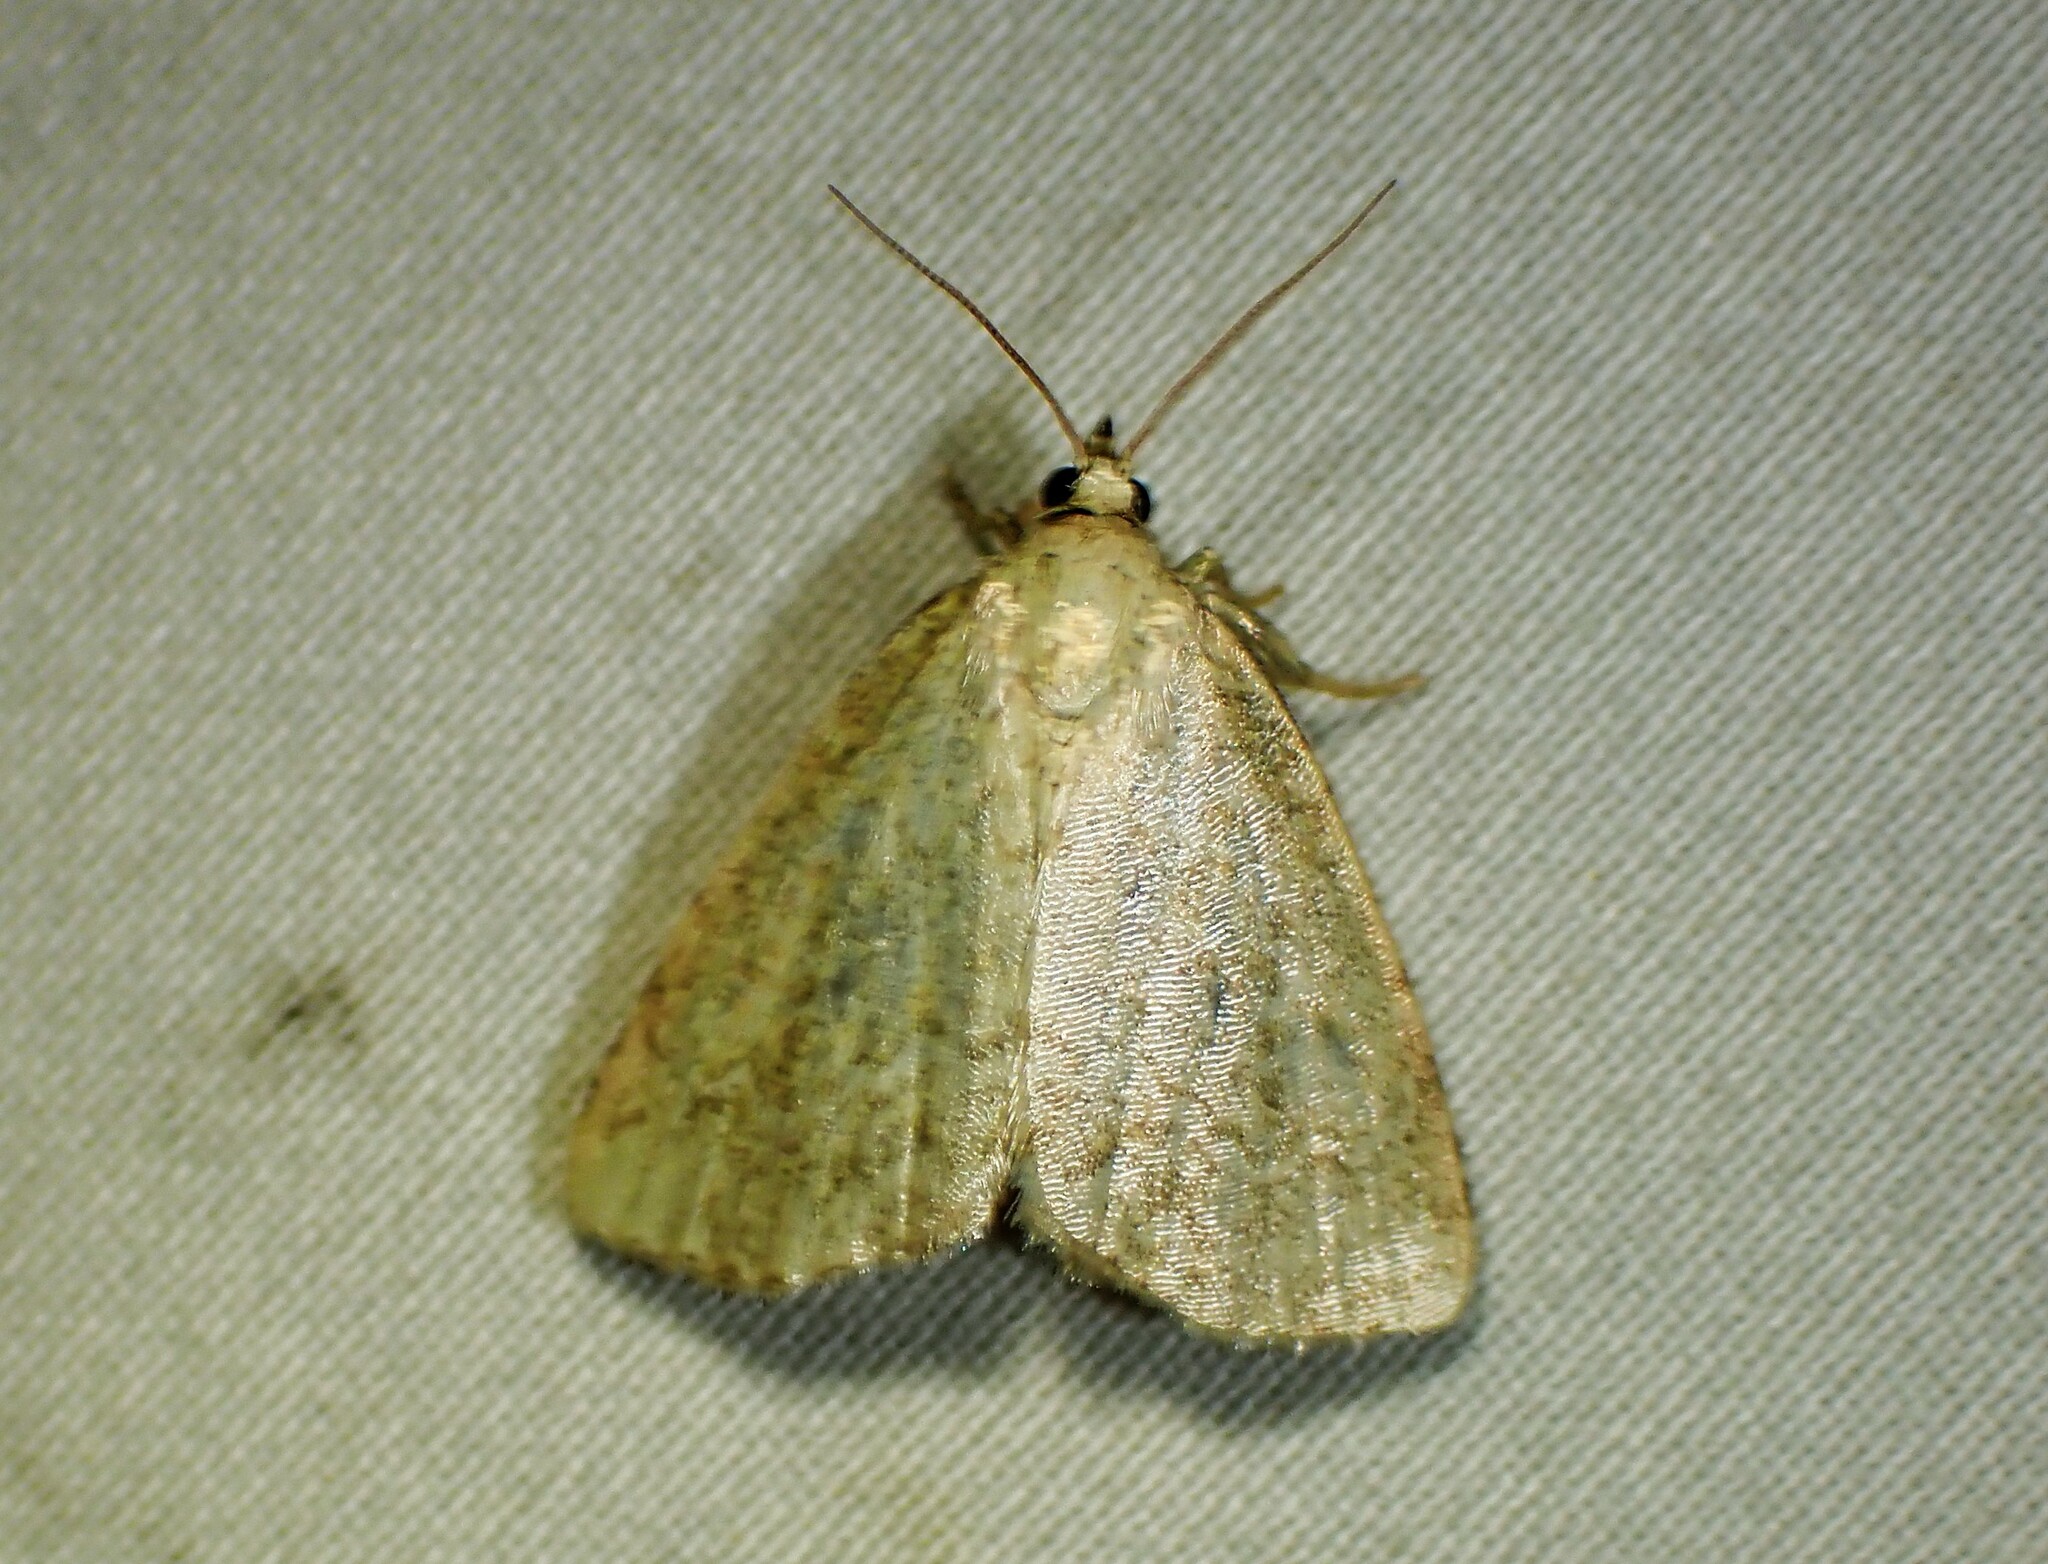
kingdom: Animalia
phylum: Arthropoda
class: Insecta
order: Lepidoptera
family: Noctuidae
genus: Protodeltote
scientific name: Protodeltote albidula
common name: Pale glyph
